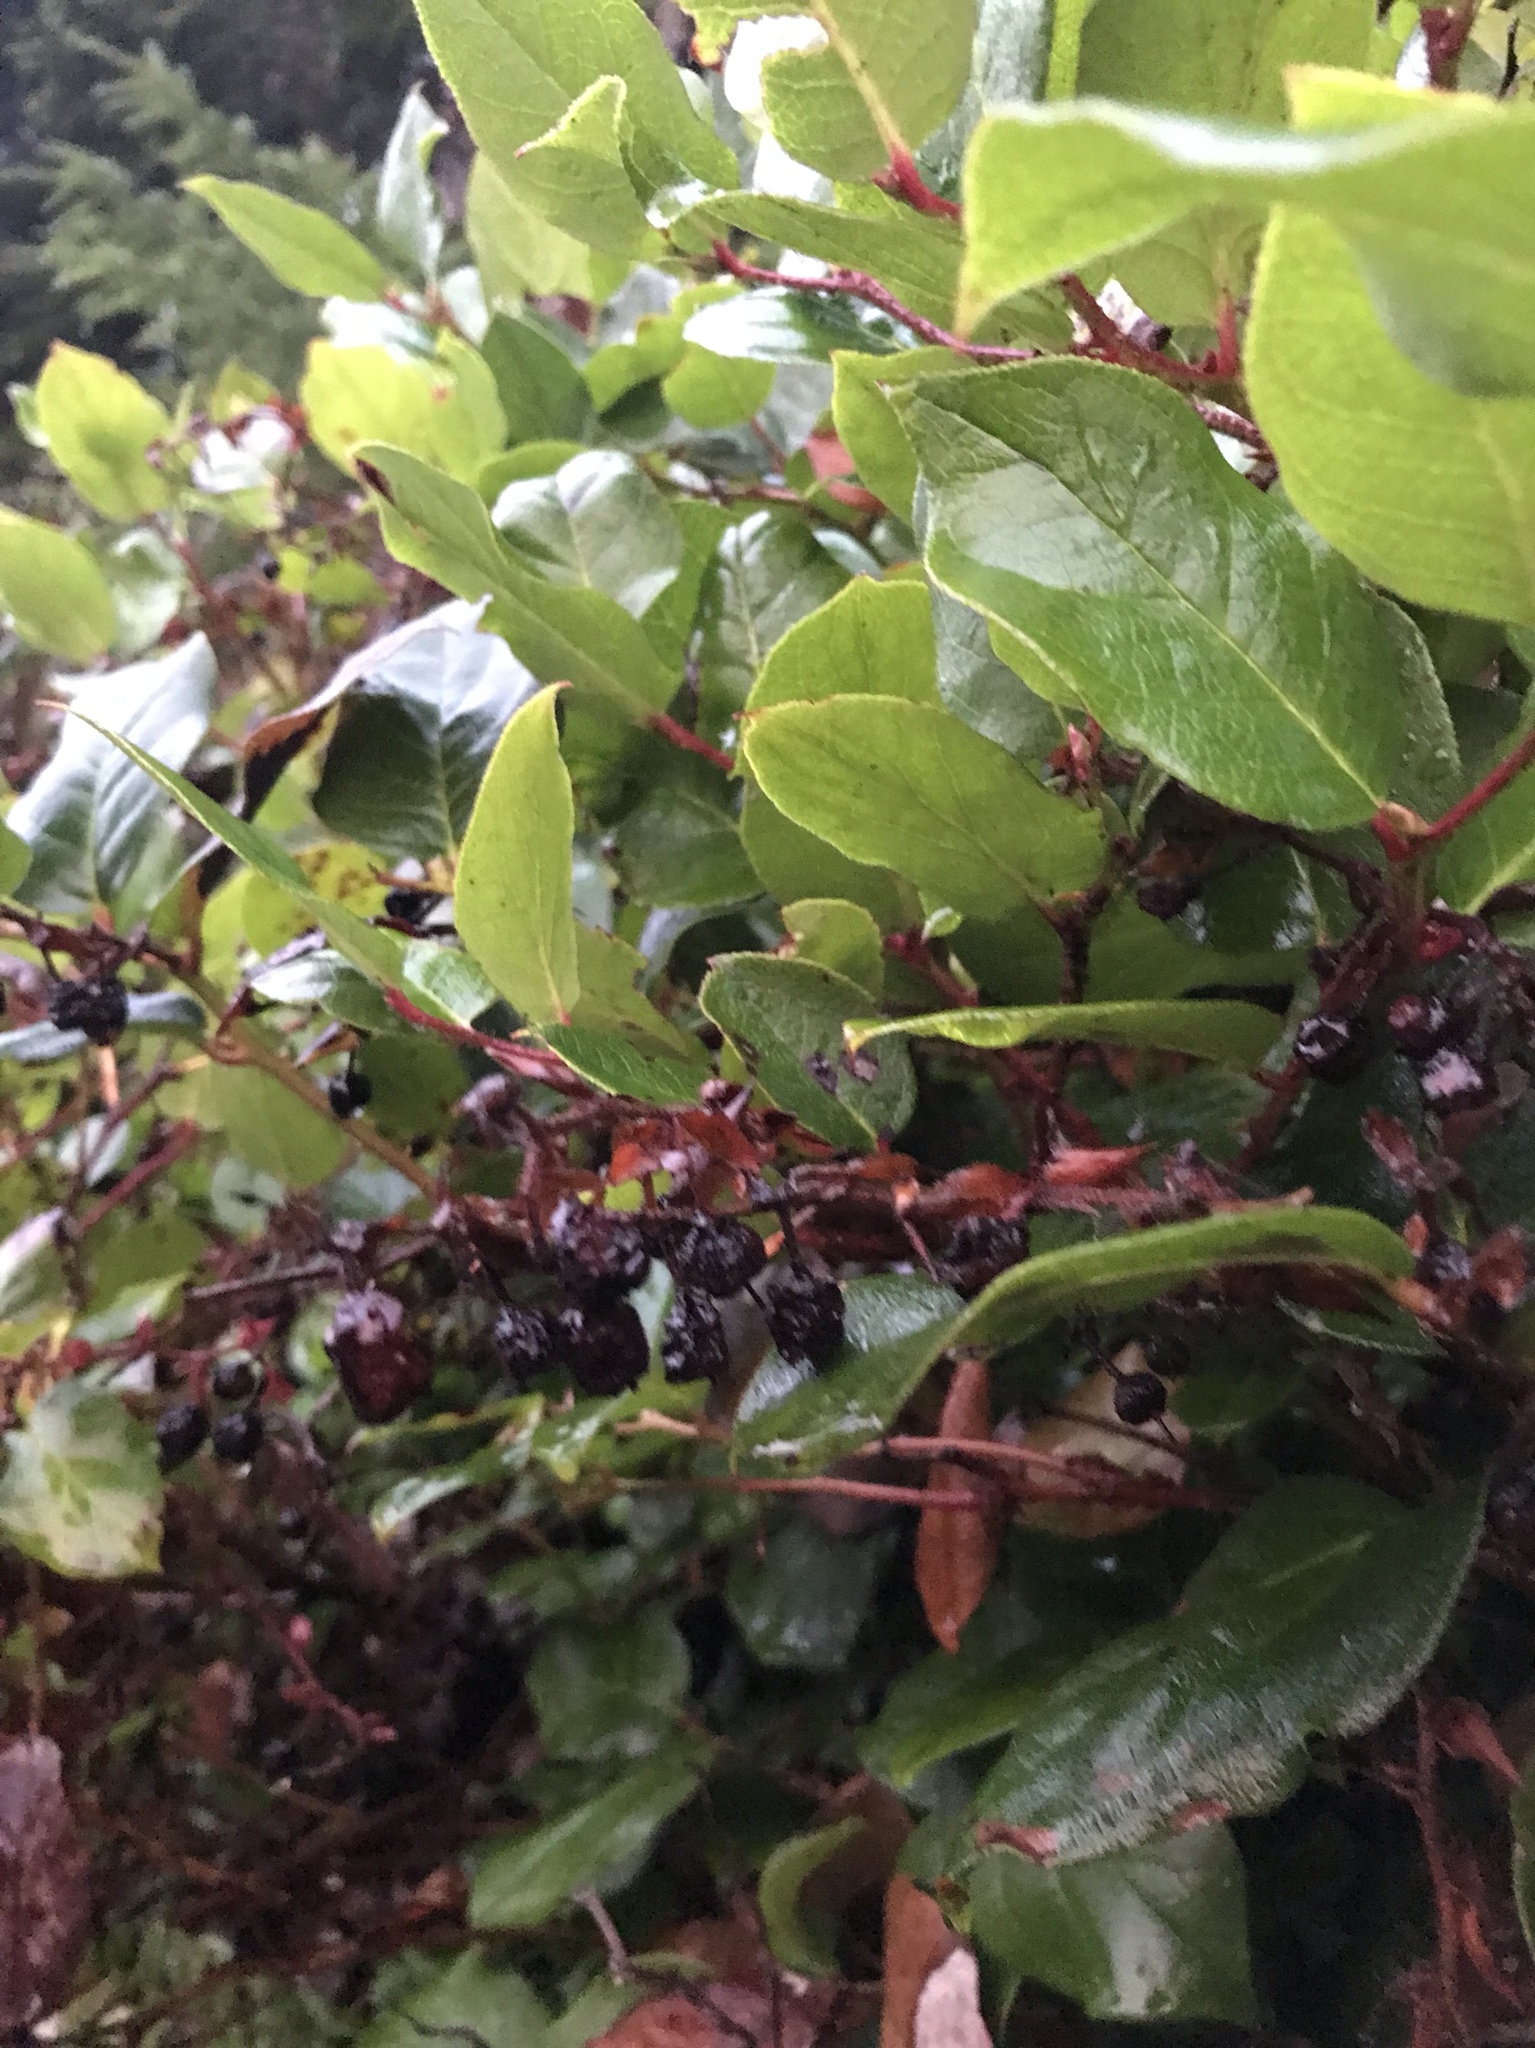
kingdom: Plantae
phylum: Tracheophyta
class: Magnoliopsida
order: Ericales
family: Ericaceae
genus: Gaultheria
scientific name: Gaultheria shallon
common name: Shallon
